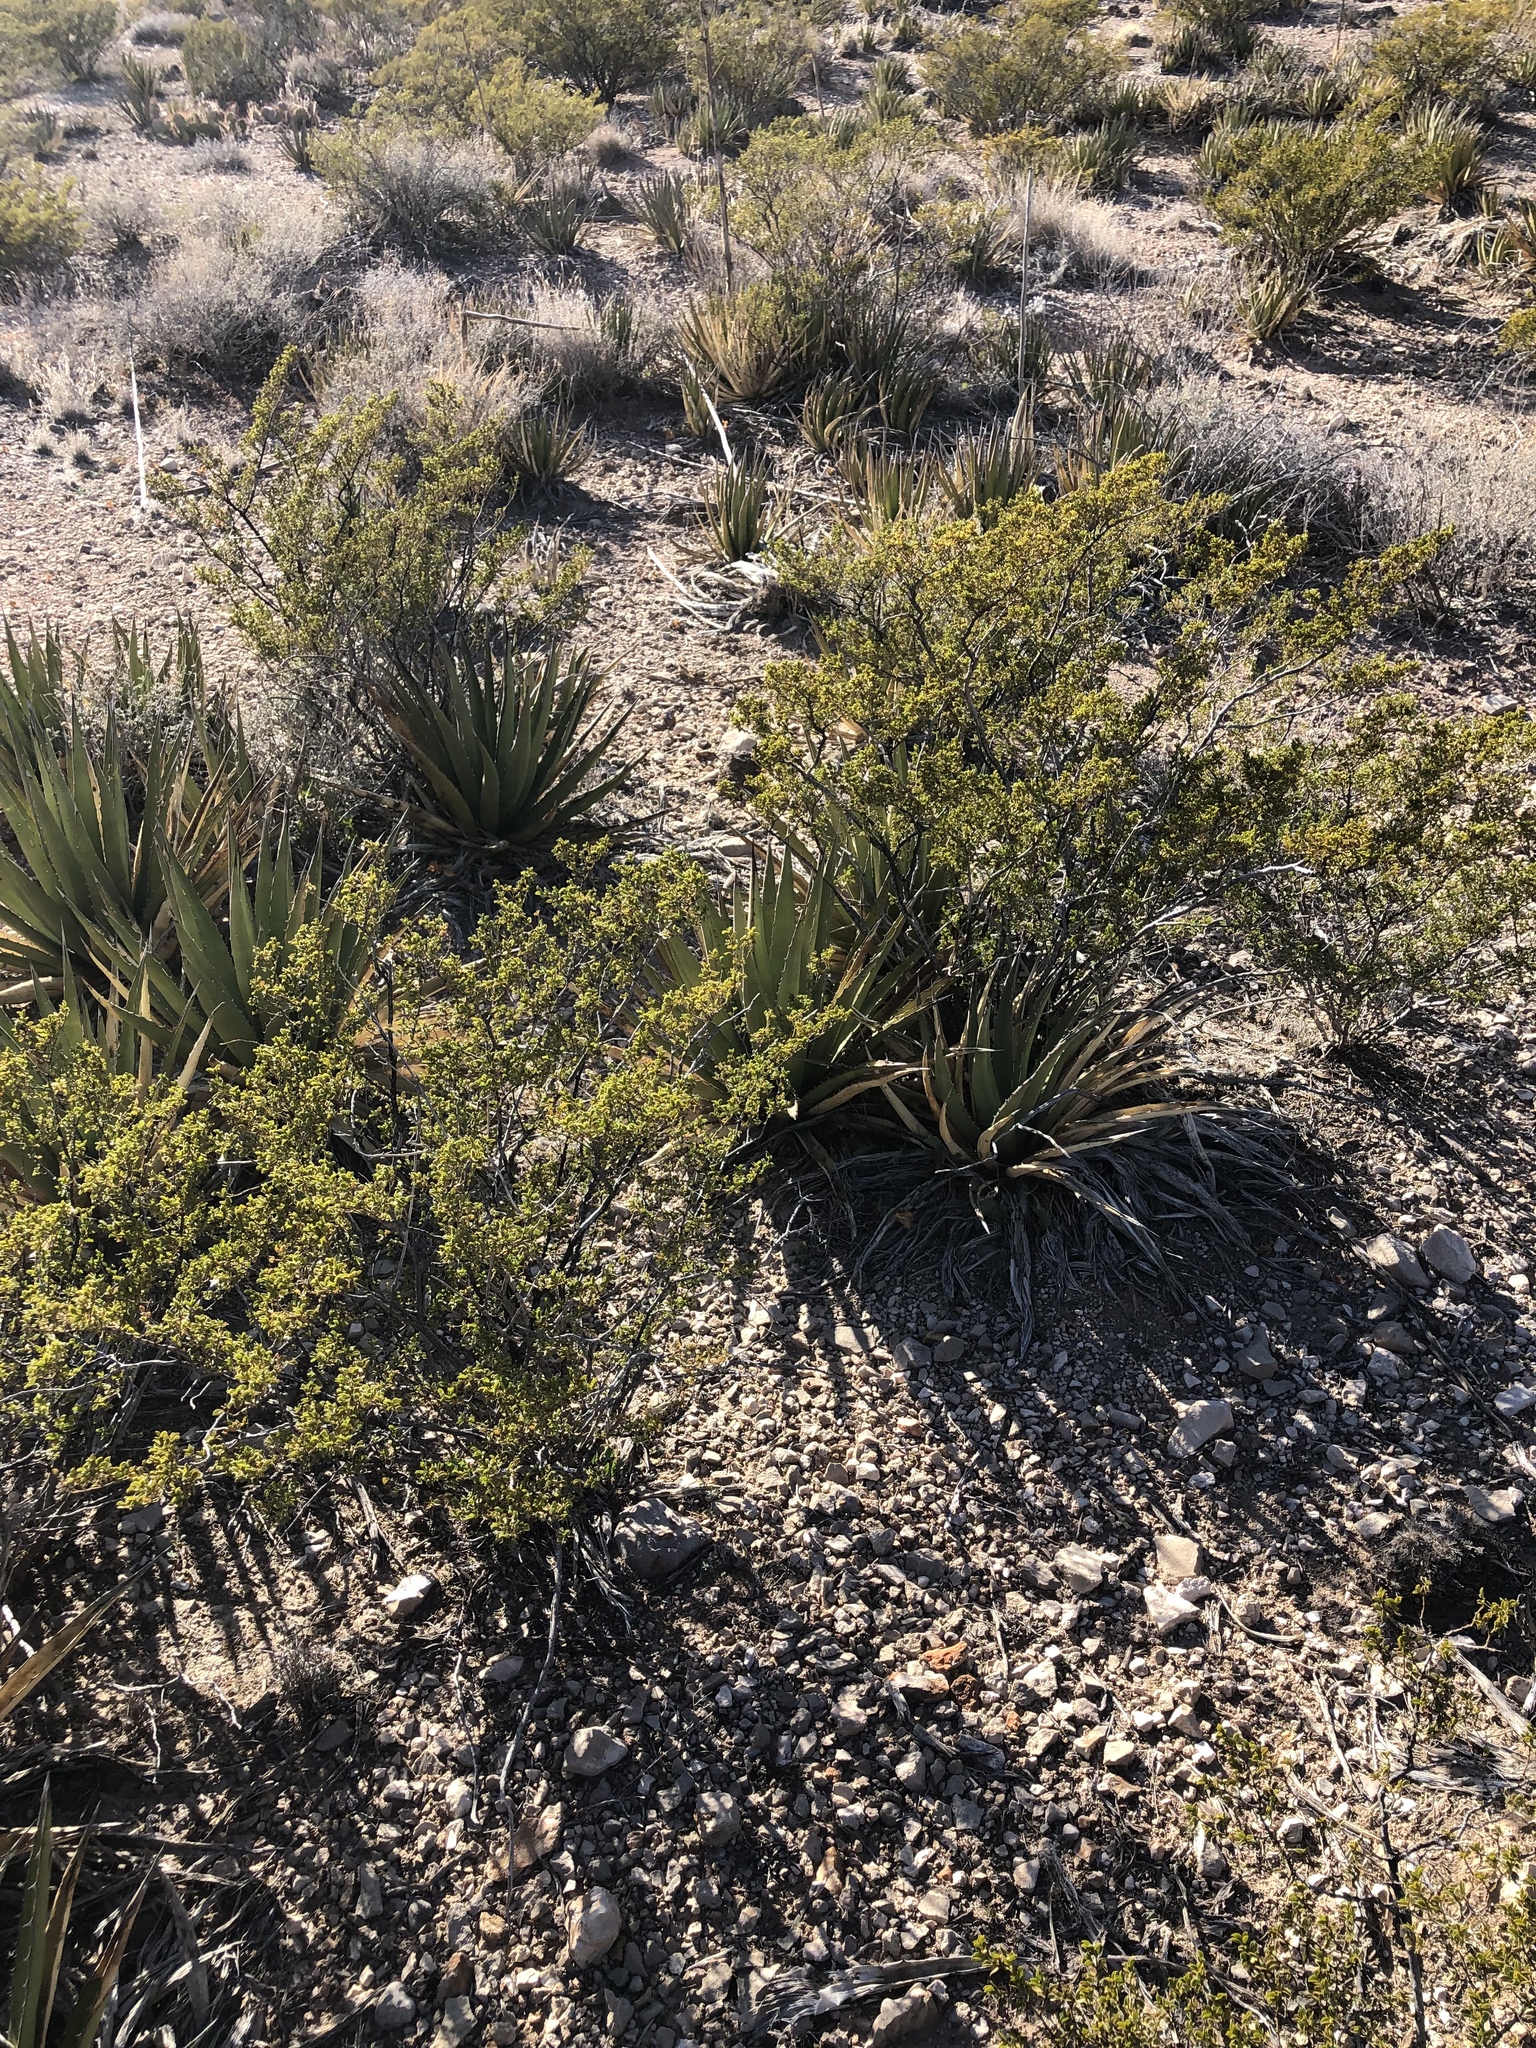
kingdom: Plantae
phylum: Tracheophyta
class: Magnoliopsida
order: Zygophyllales
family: Zygophyllaceae
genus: Larrea
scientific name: Larrea tridentata
